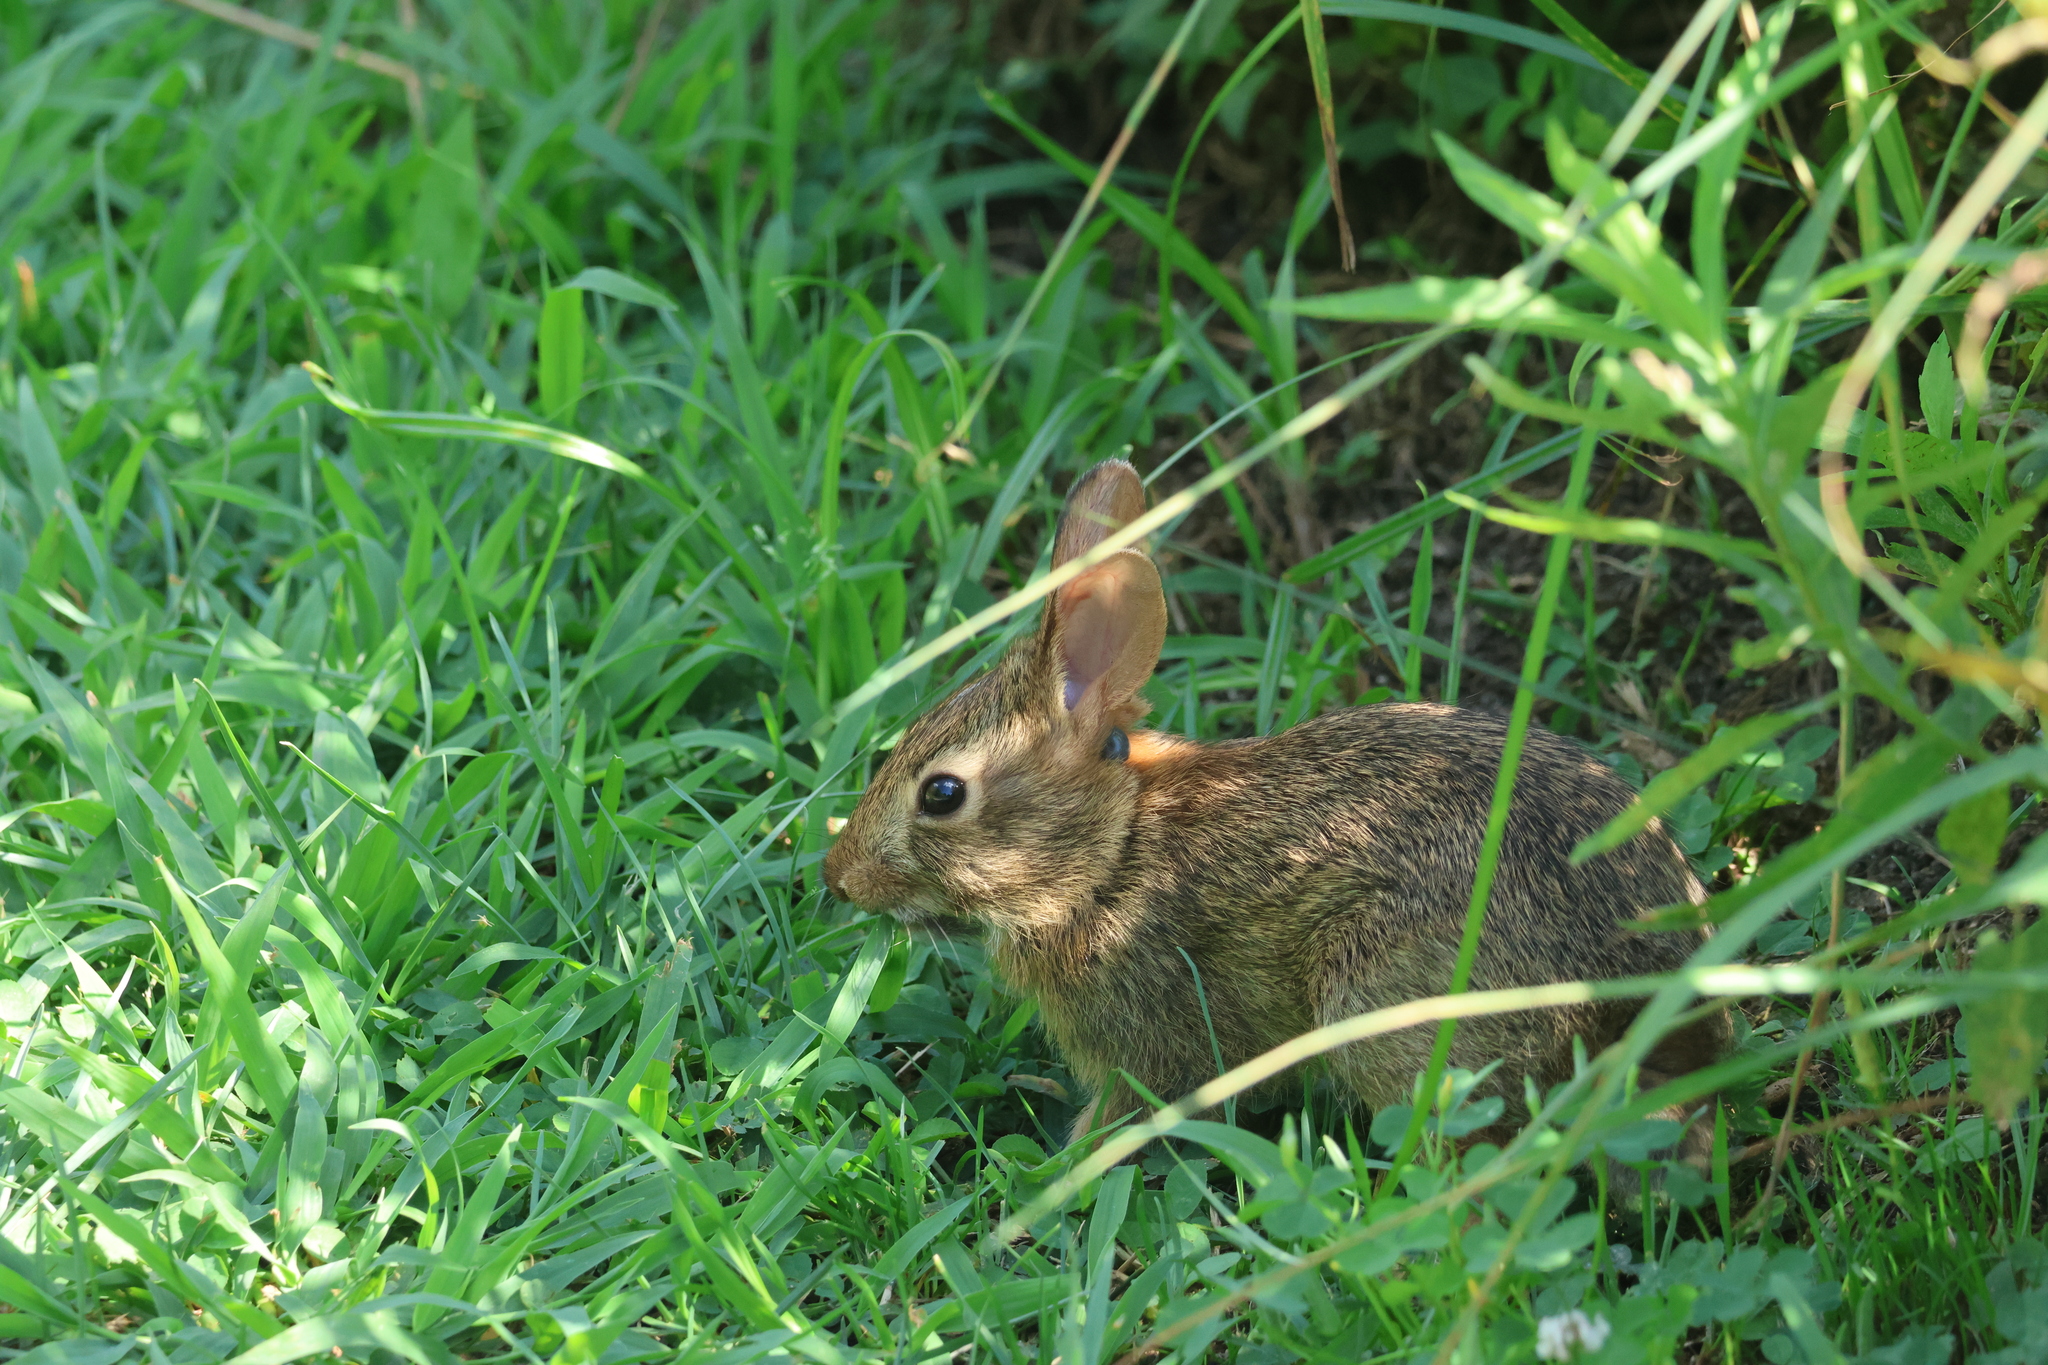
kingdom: Animalia
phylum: Chordata
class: Mammalia
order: Lagomorpha
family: Leporidae
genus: Sylvilagus
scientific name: Sylvilagus floridanus
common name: Eastern cottontail
